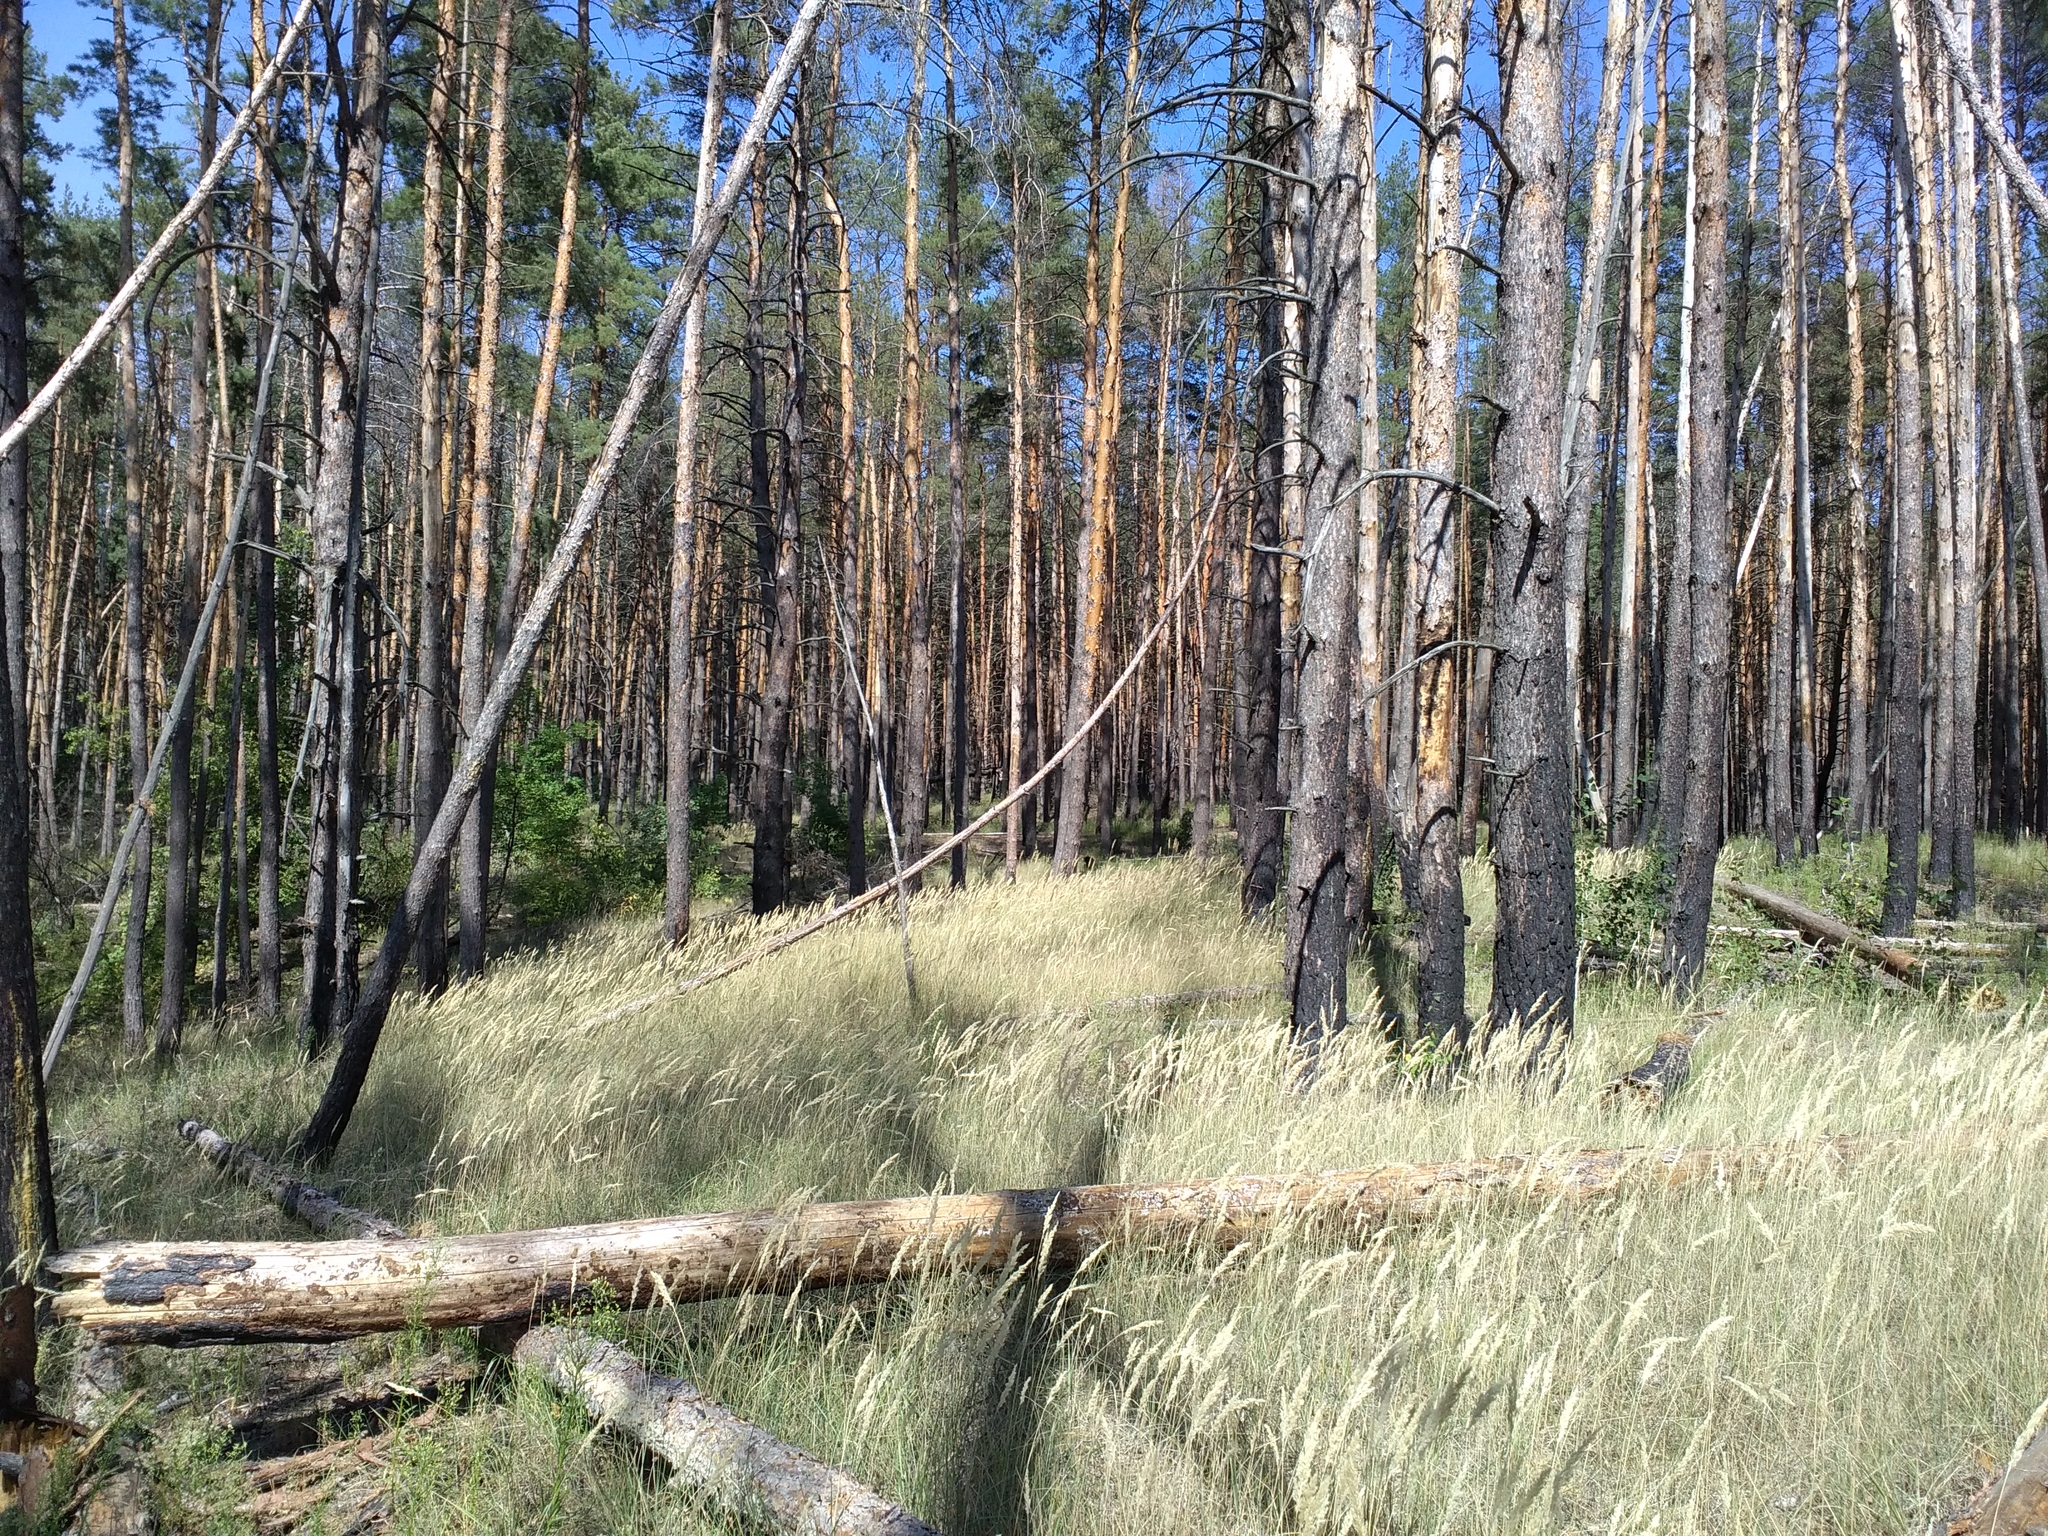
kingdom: Plantae
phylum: Tracheophyta
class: Liliopsida
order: Poales
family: Poaceae
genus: Calamagrostis
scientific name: Calamagrostis epigejos
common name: Wood small-reed
